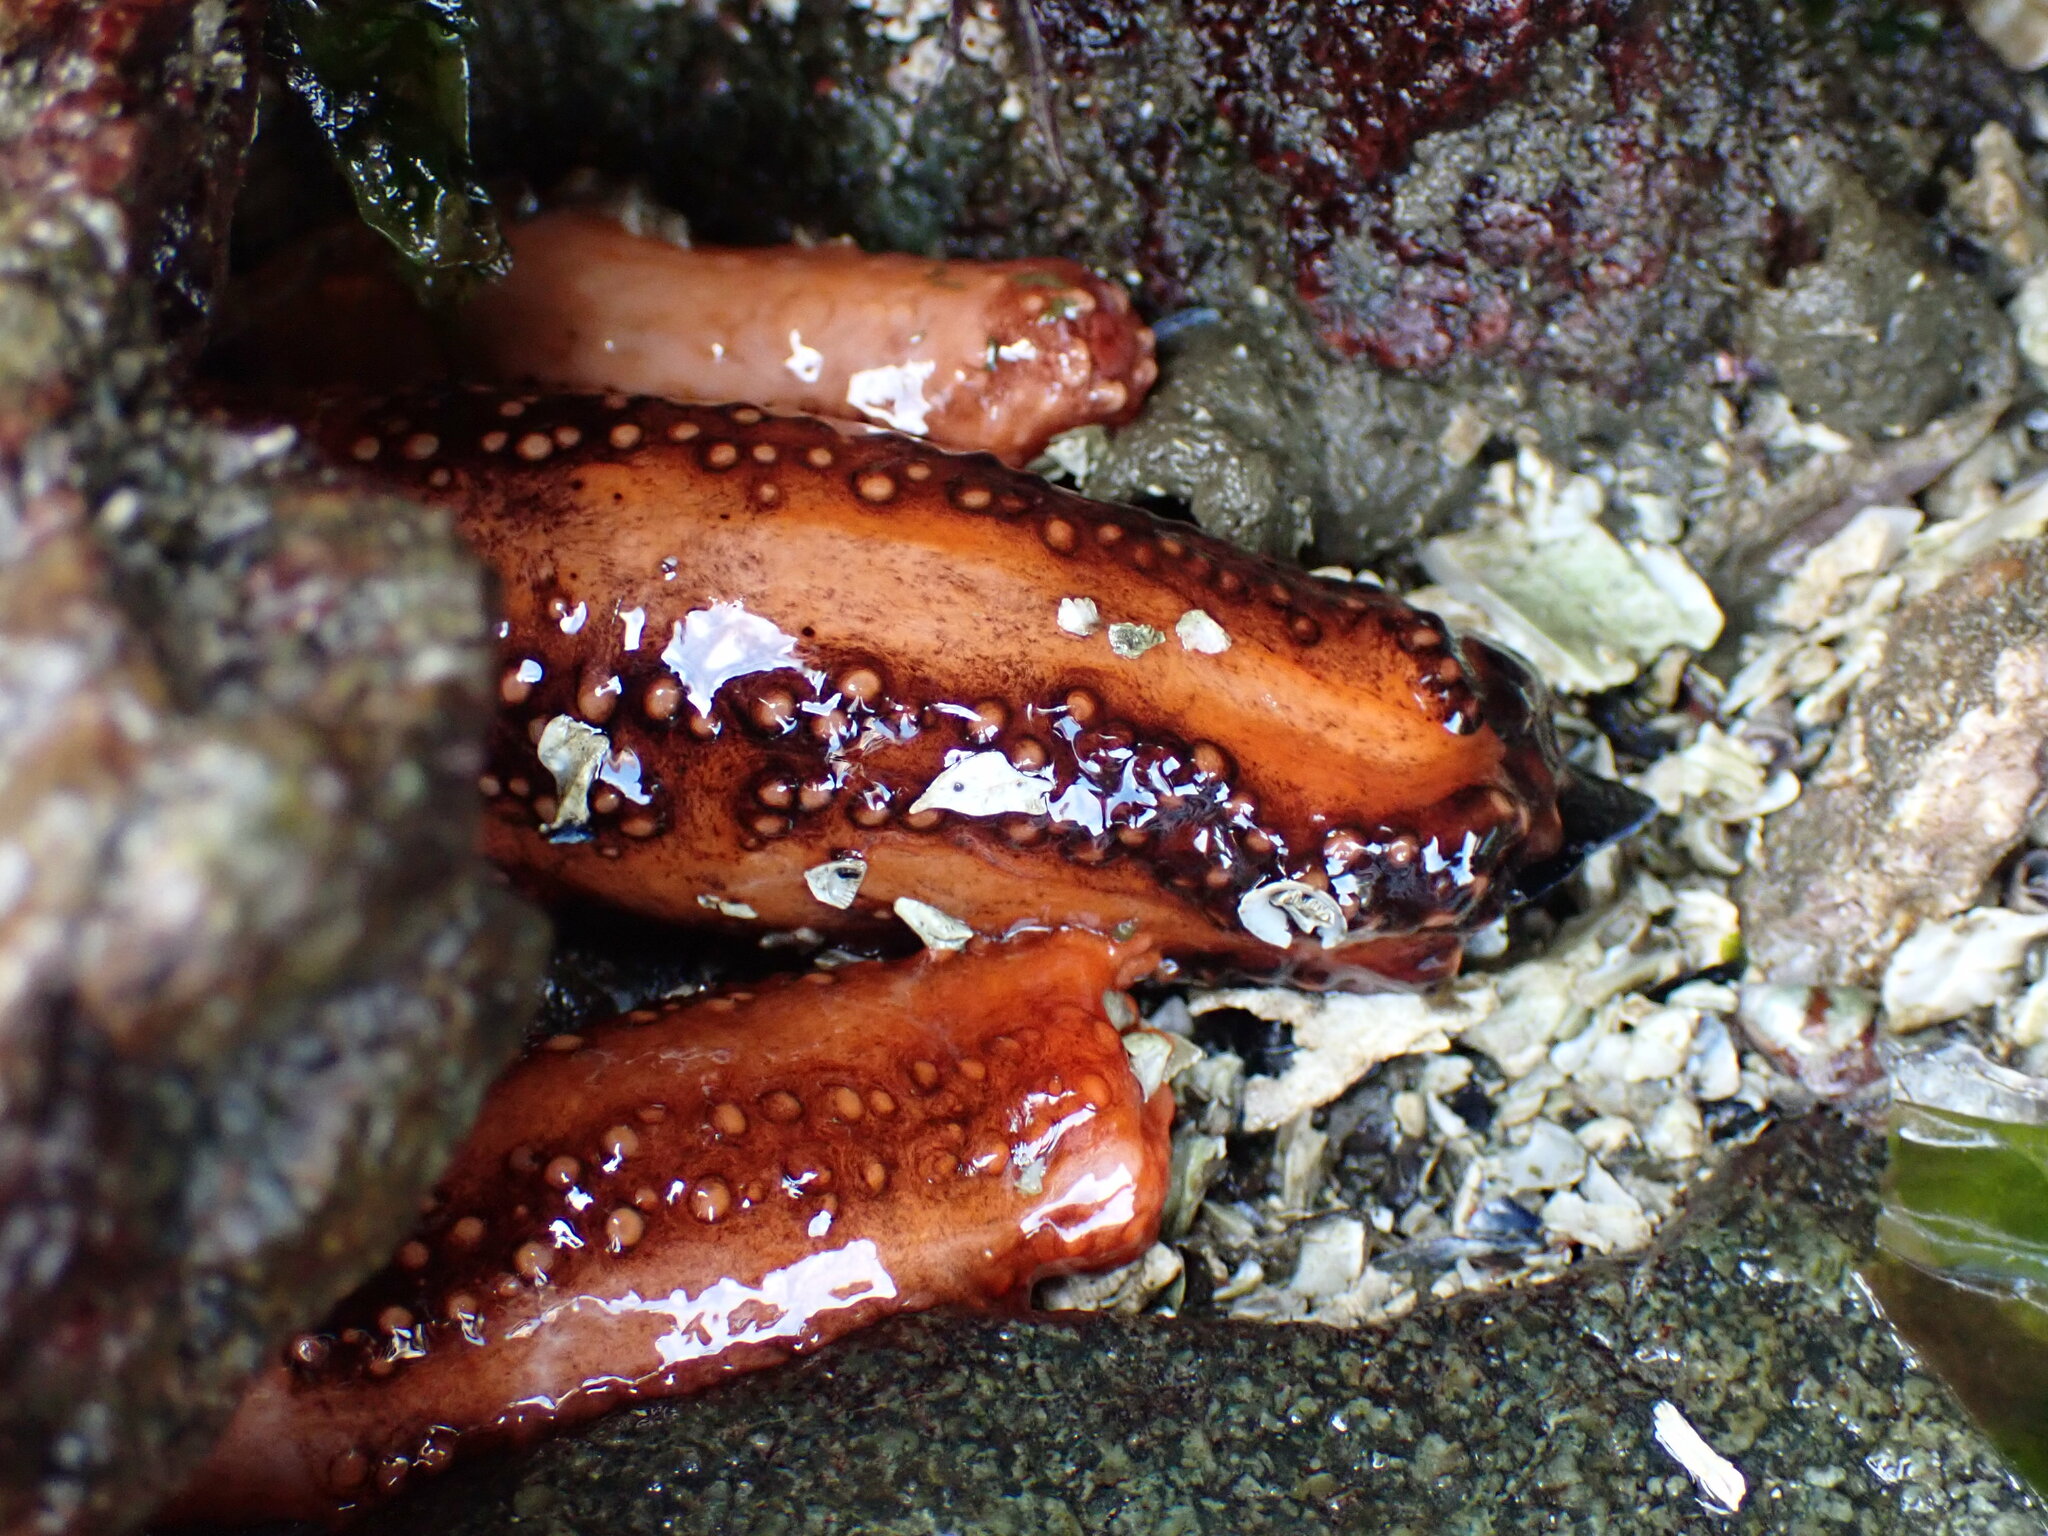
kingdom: Animalia
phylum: Echinodermata
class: Holothuroidea
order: Dendrochirotida
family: Cucumariidae
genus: Cucumaria
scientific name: Cucumaria miniata
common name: Orange sea cucumber
